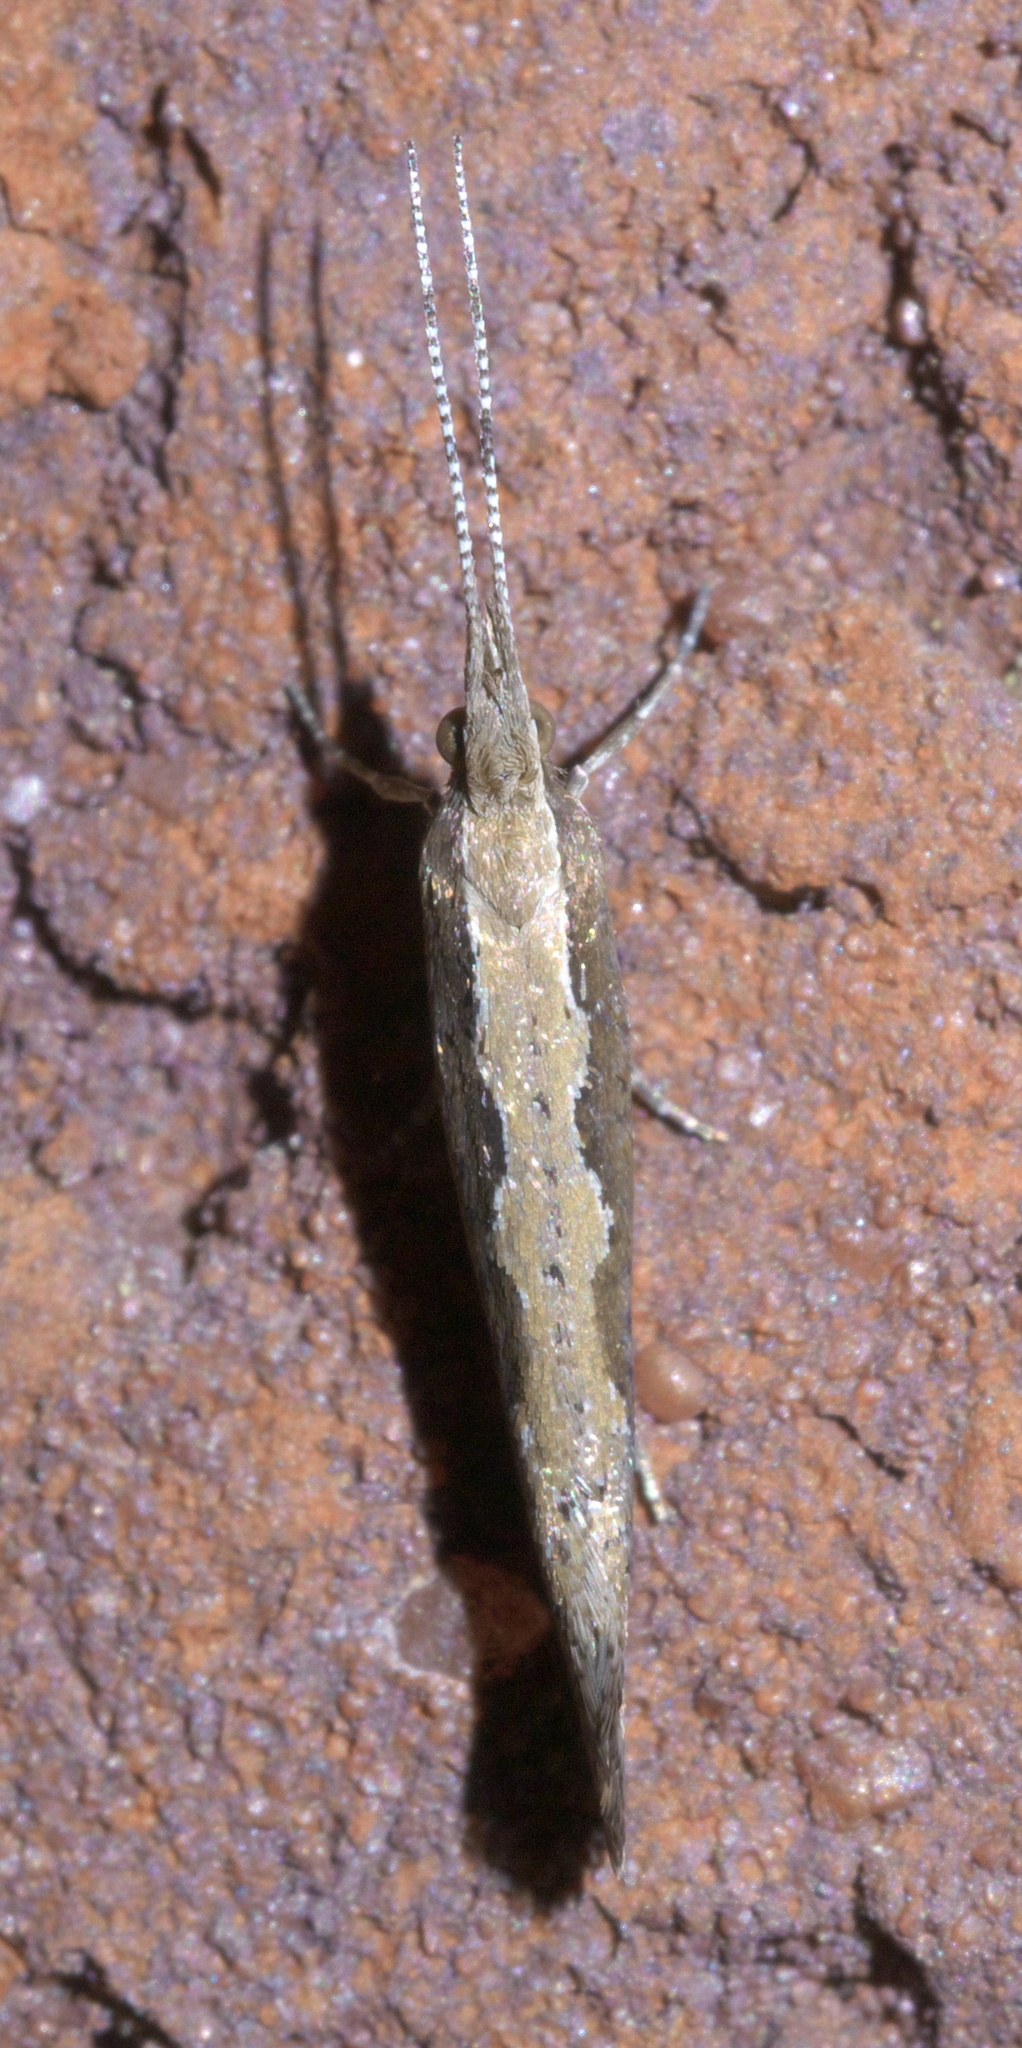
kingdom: Animalia
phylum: Arthropoda
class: Insecta
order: Lepidoptera
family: Plutellidae
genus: Plutella
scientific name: Plutella xylostella
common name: Diamond-back moth
